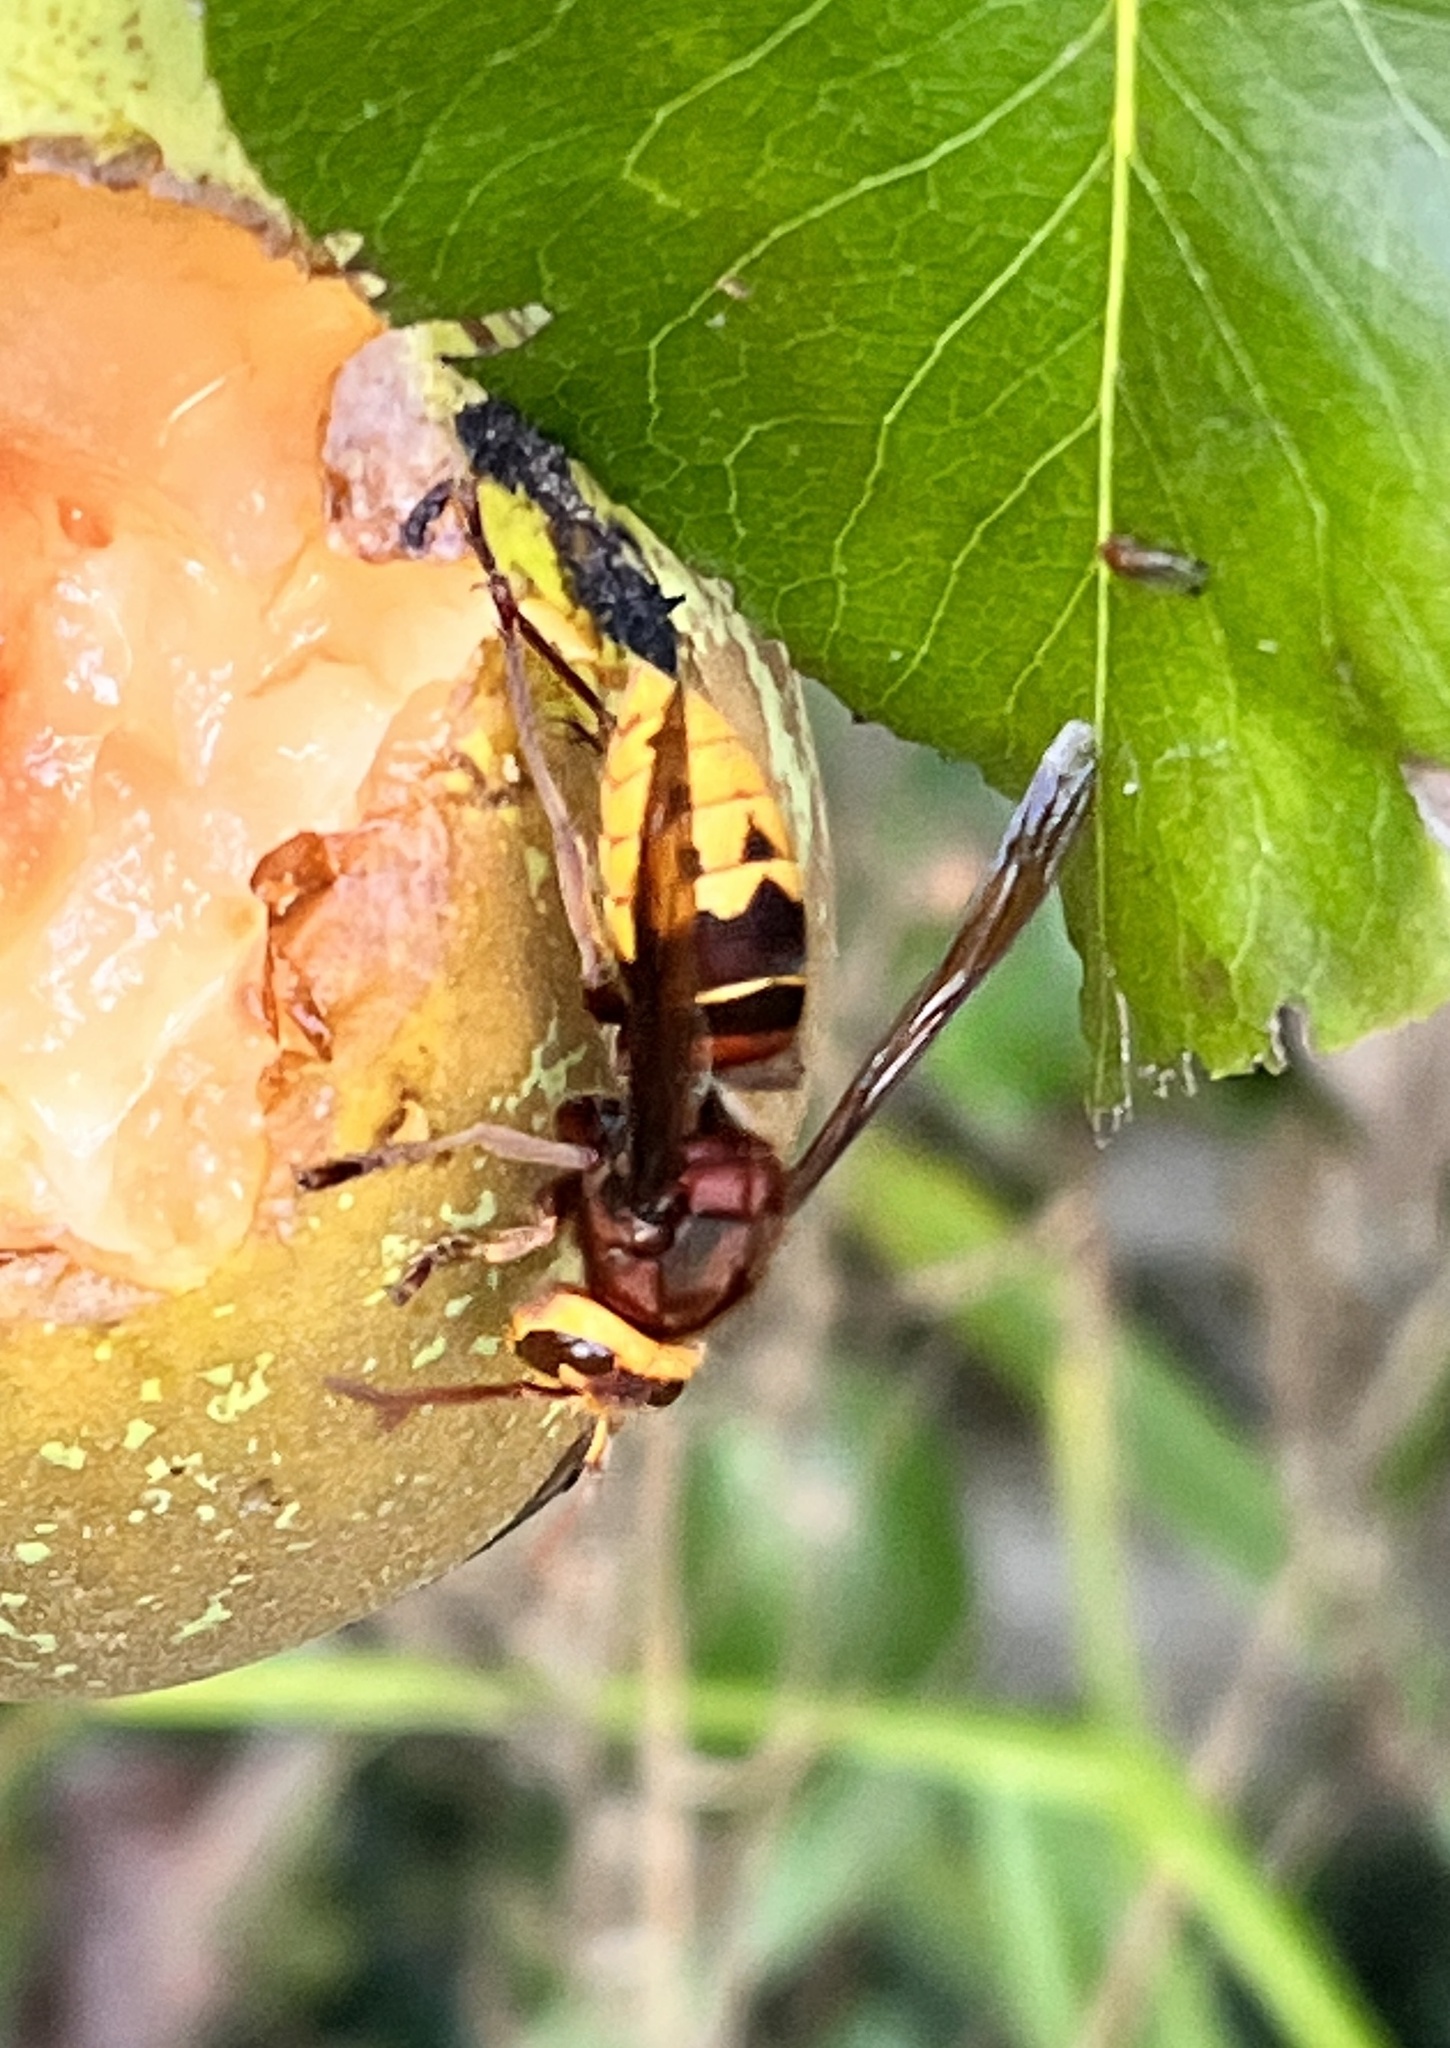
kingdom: Animalia
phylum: Arthropoda
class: Insecta
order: Hymenoptera
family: Vespidae
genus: Vespa
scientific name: Vespa crabro
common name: Hornet
